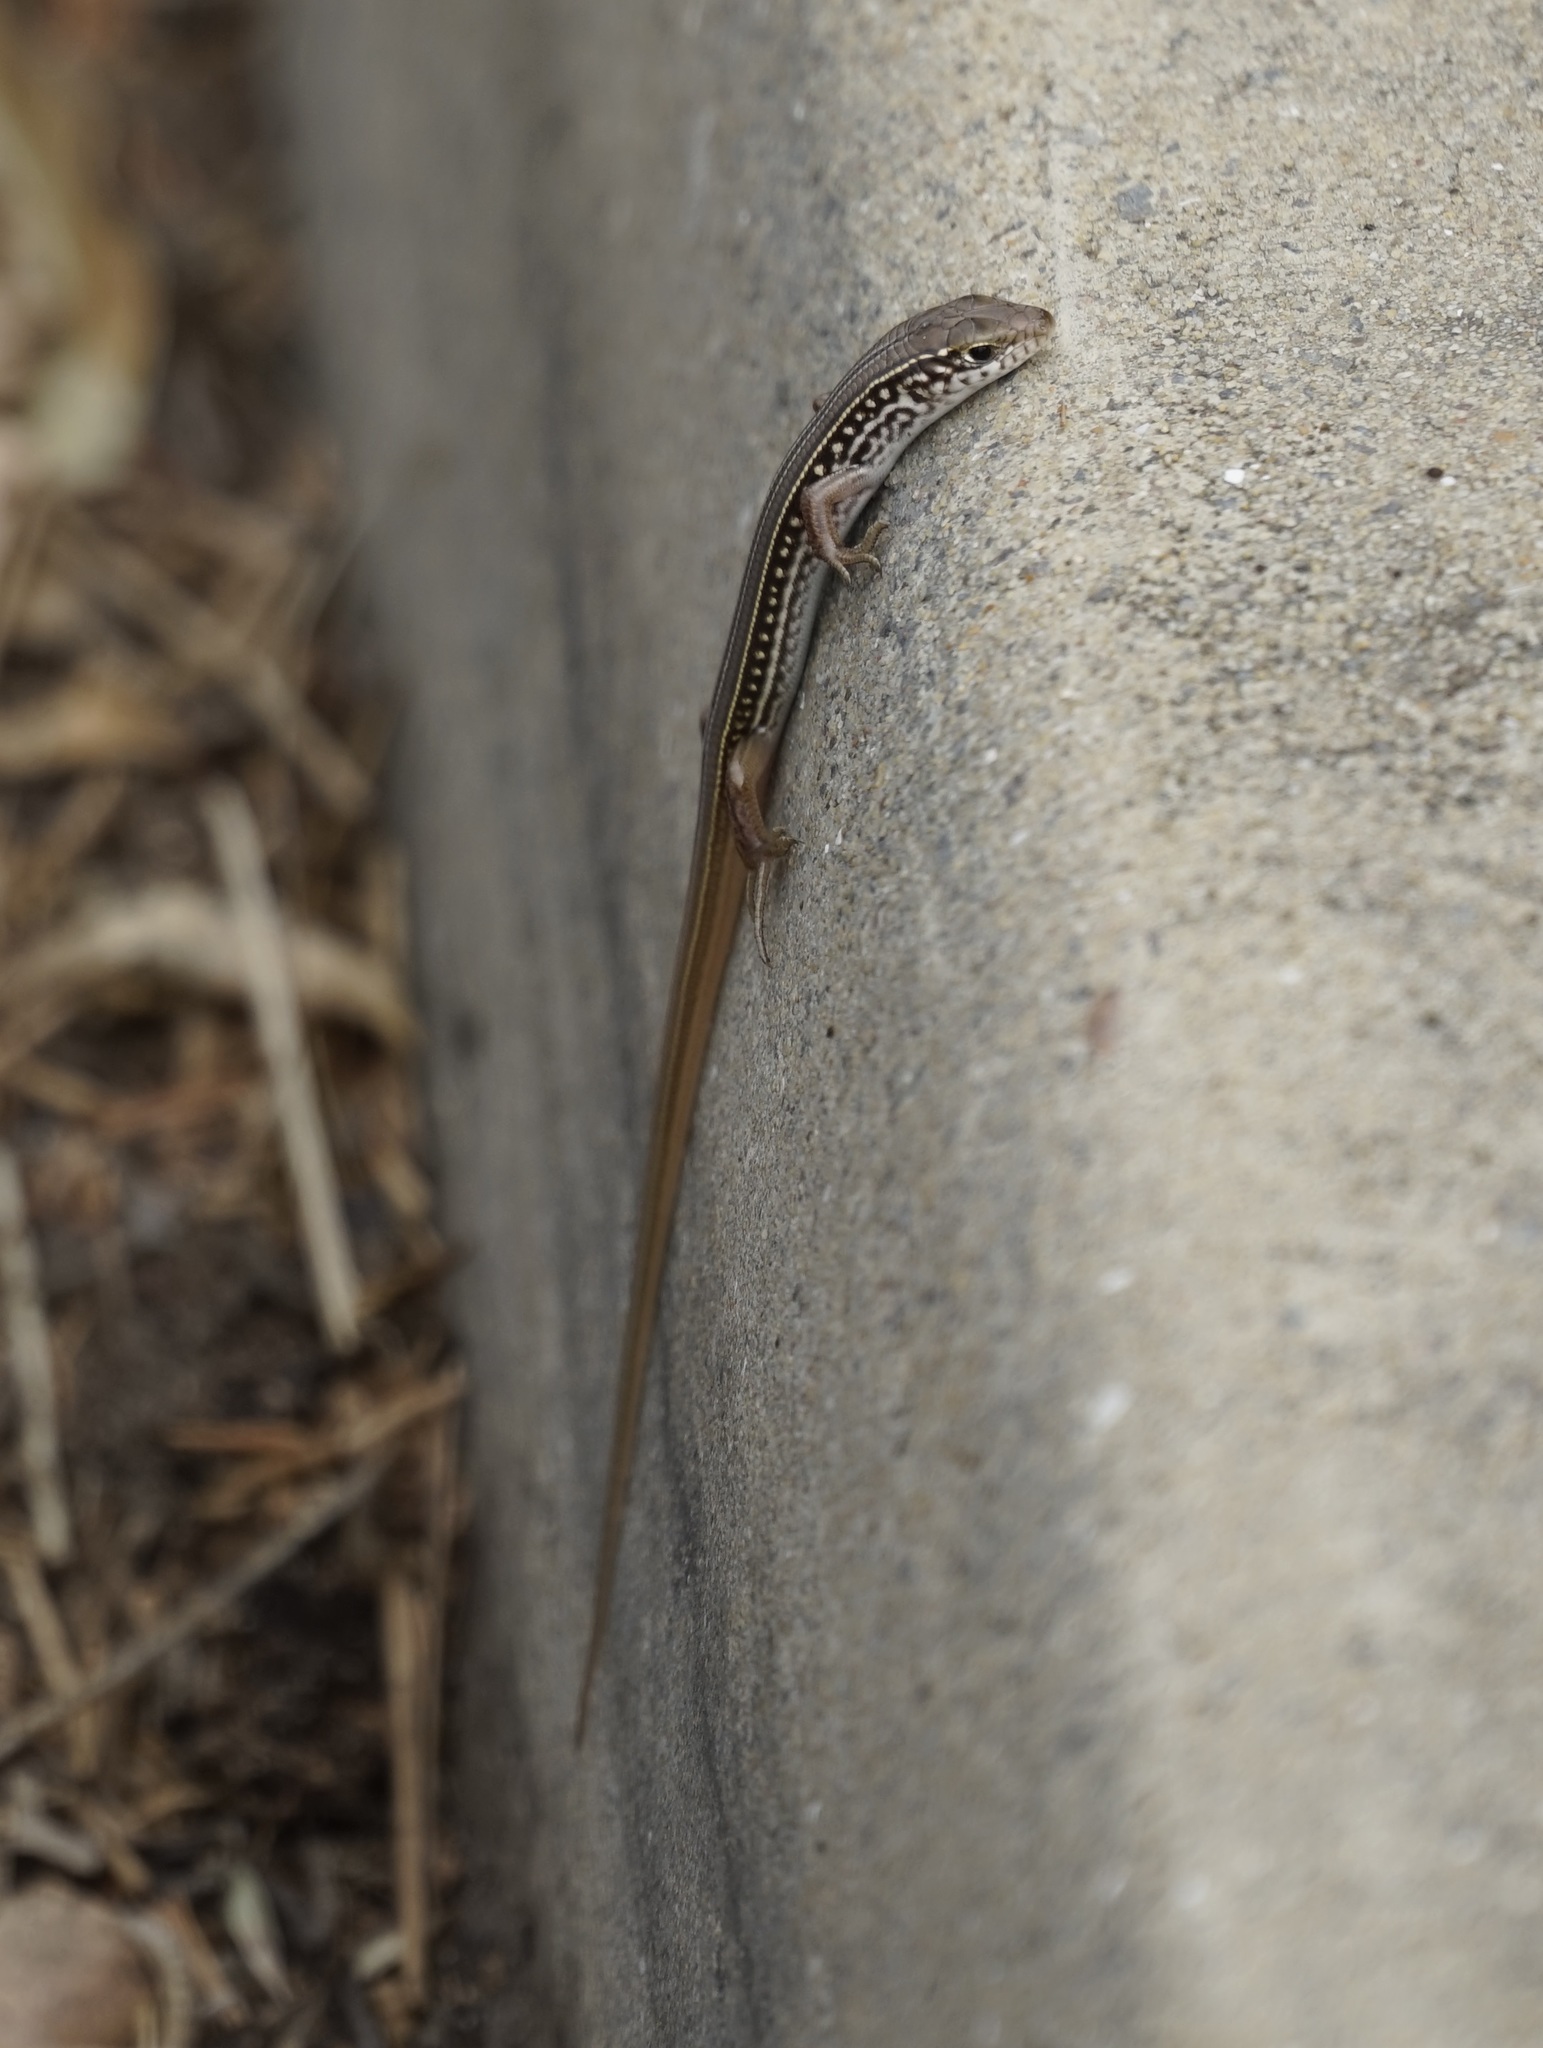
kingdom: Animalia
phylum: Chordata
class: Squamata
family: Scincidae
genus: Ctenotus
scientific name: Ctenotus robustus
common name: Robust ctenotus
